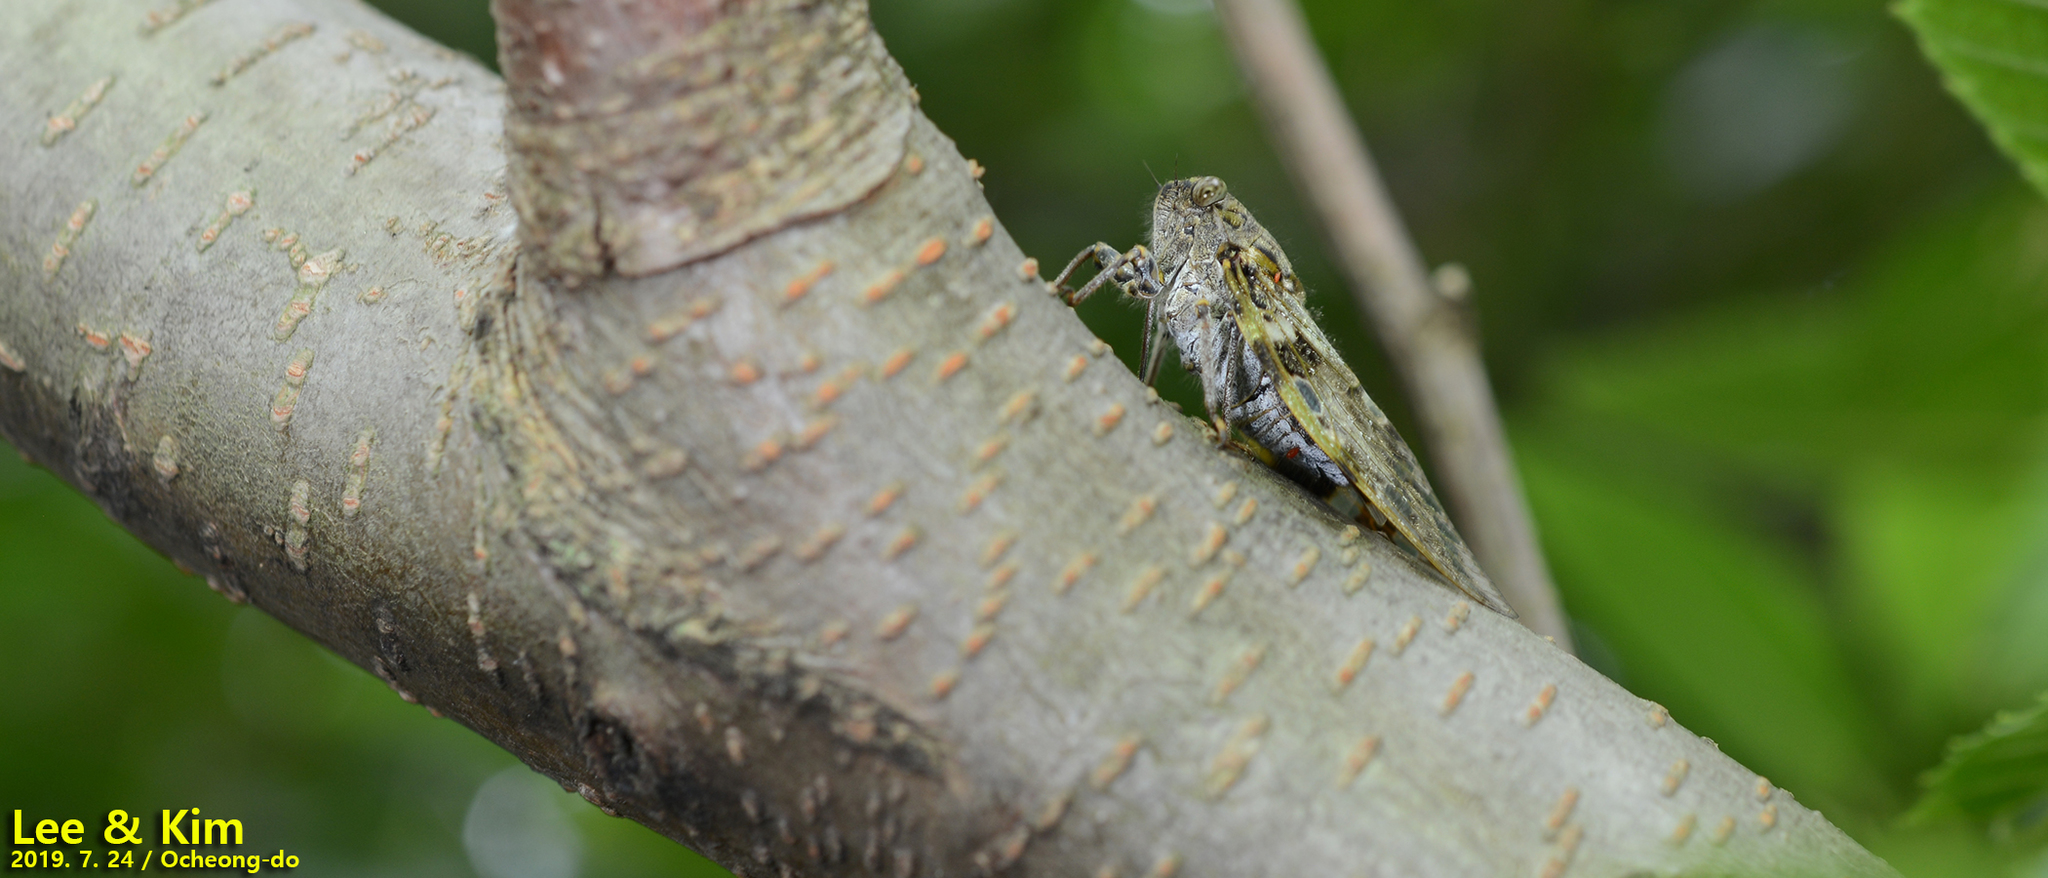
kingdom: Animalia
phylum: Arthropoda
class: Insecta
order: Hemiptera
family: Cicadidae
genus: Platypleura
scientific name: Platypleura kaempferi
